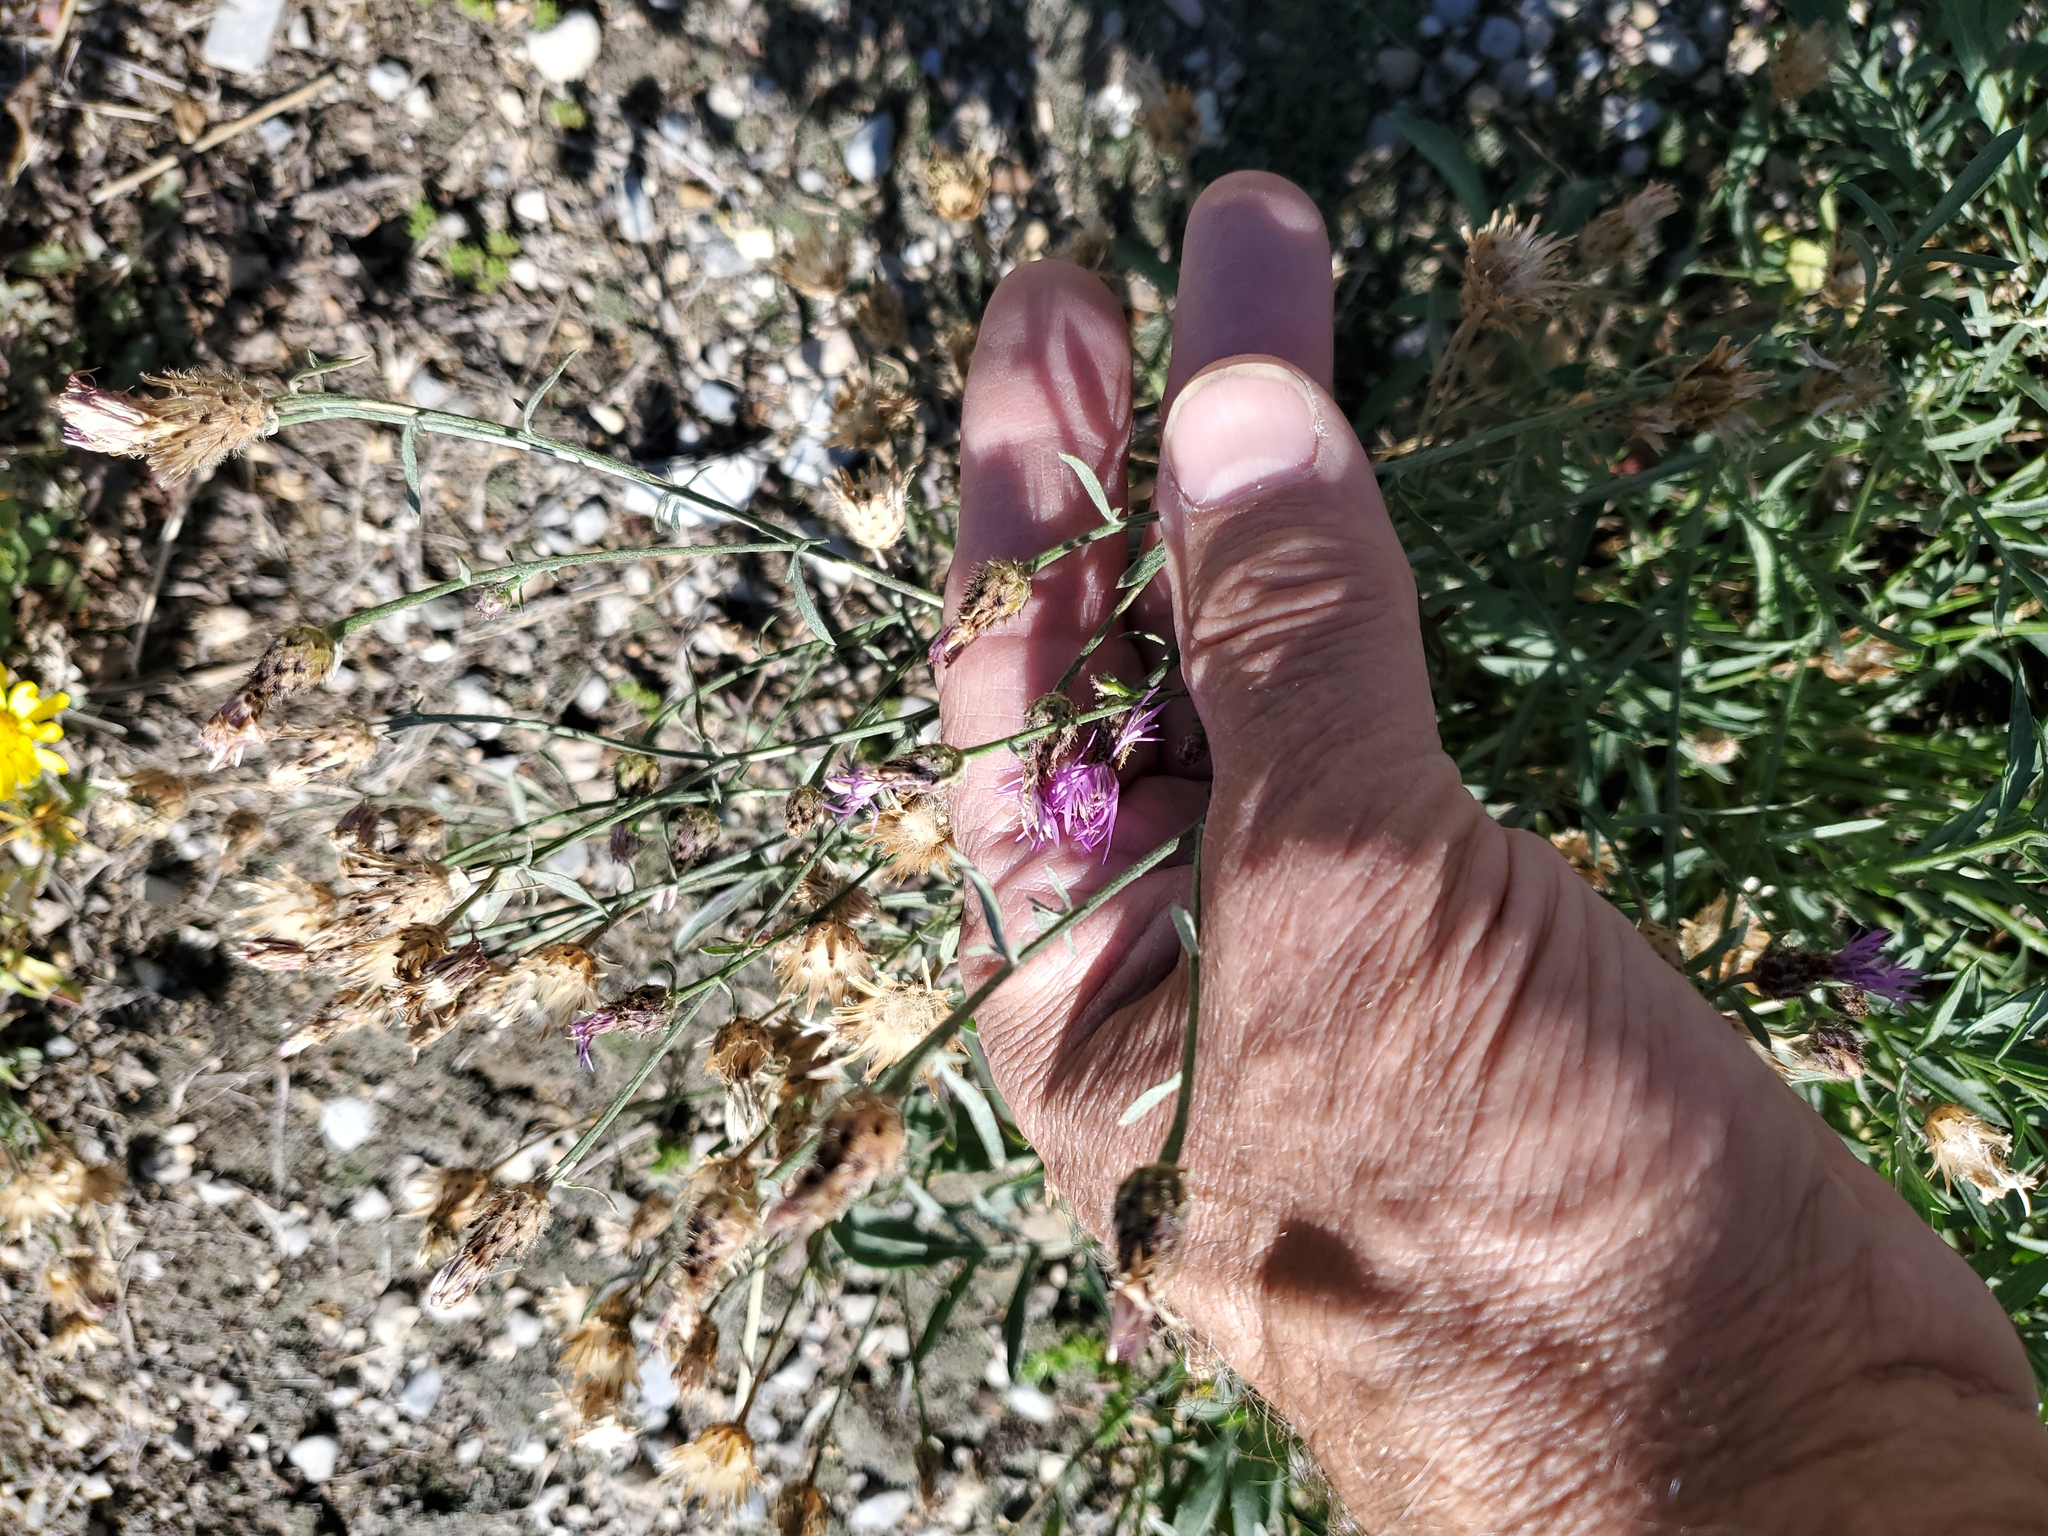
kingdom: Plantae
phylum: Tracheophyta
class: Magnoliopsida
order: Asterales
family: Asteraceae
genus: Centaurea
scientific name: Centaurea stoebe
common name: Spotted knapweed
